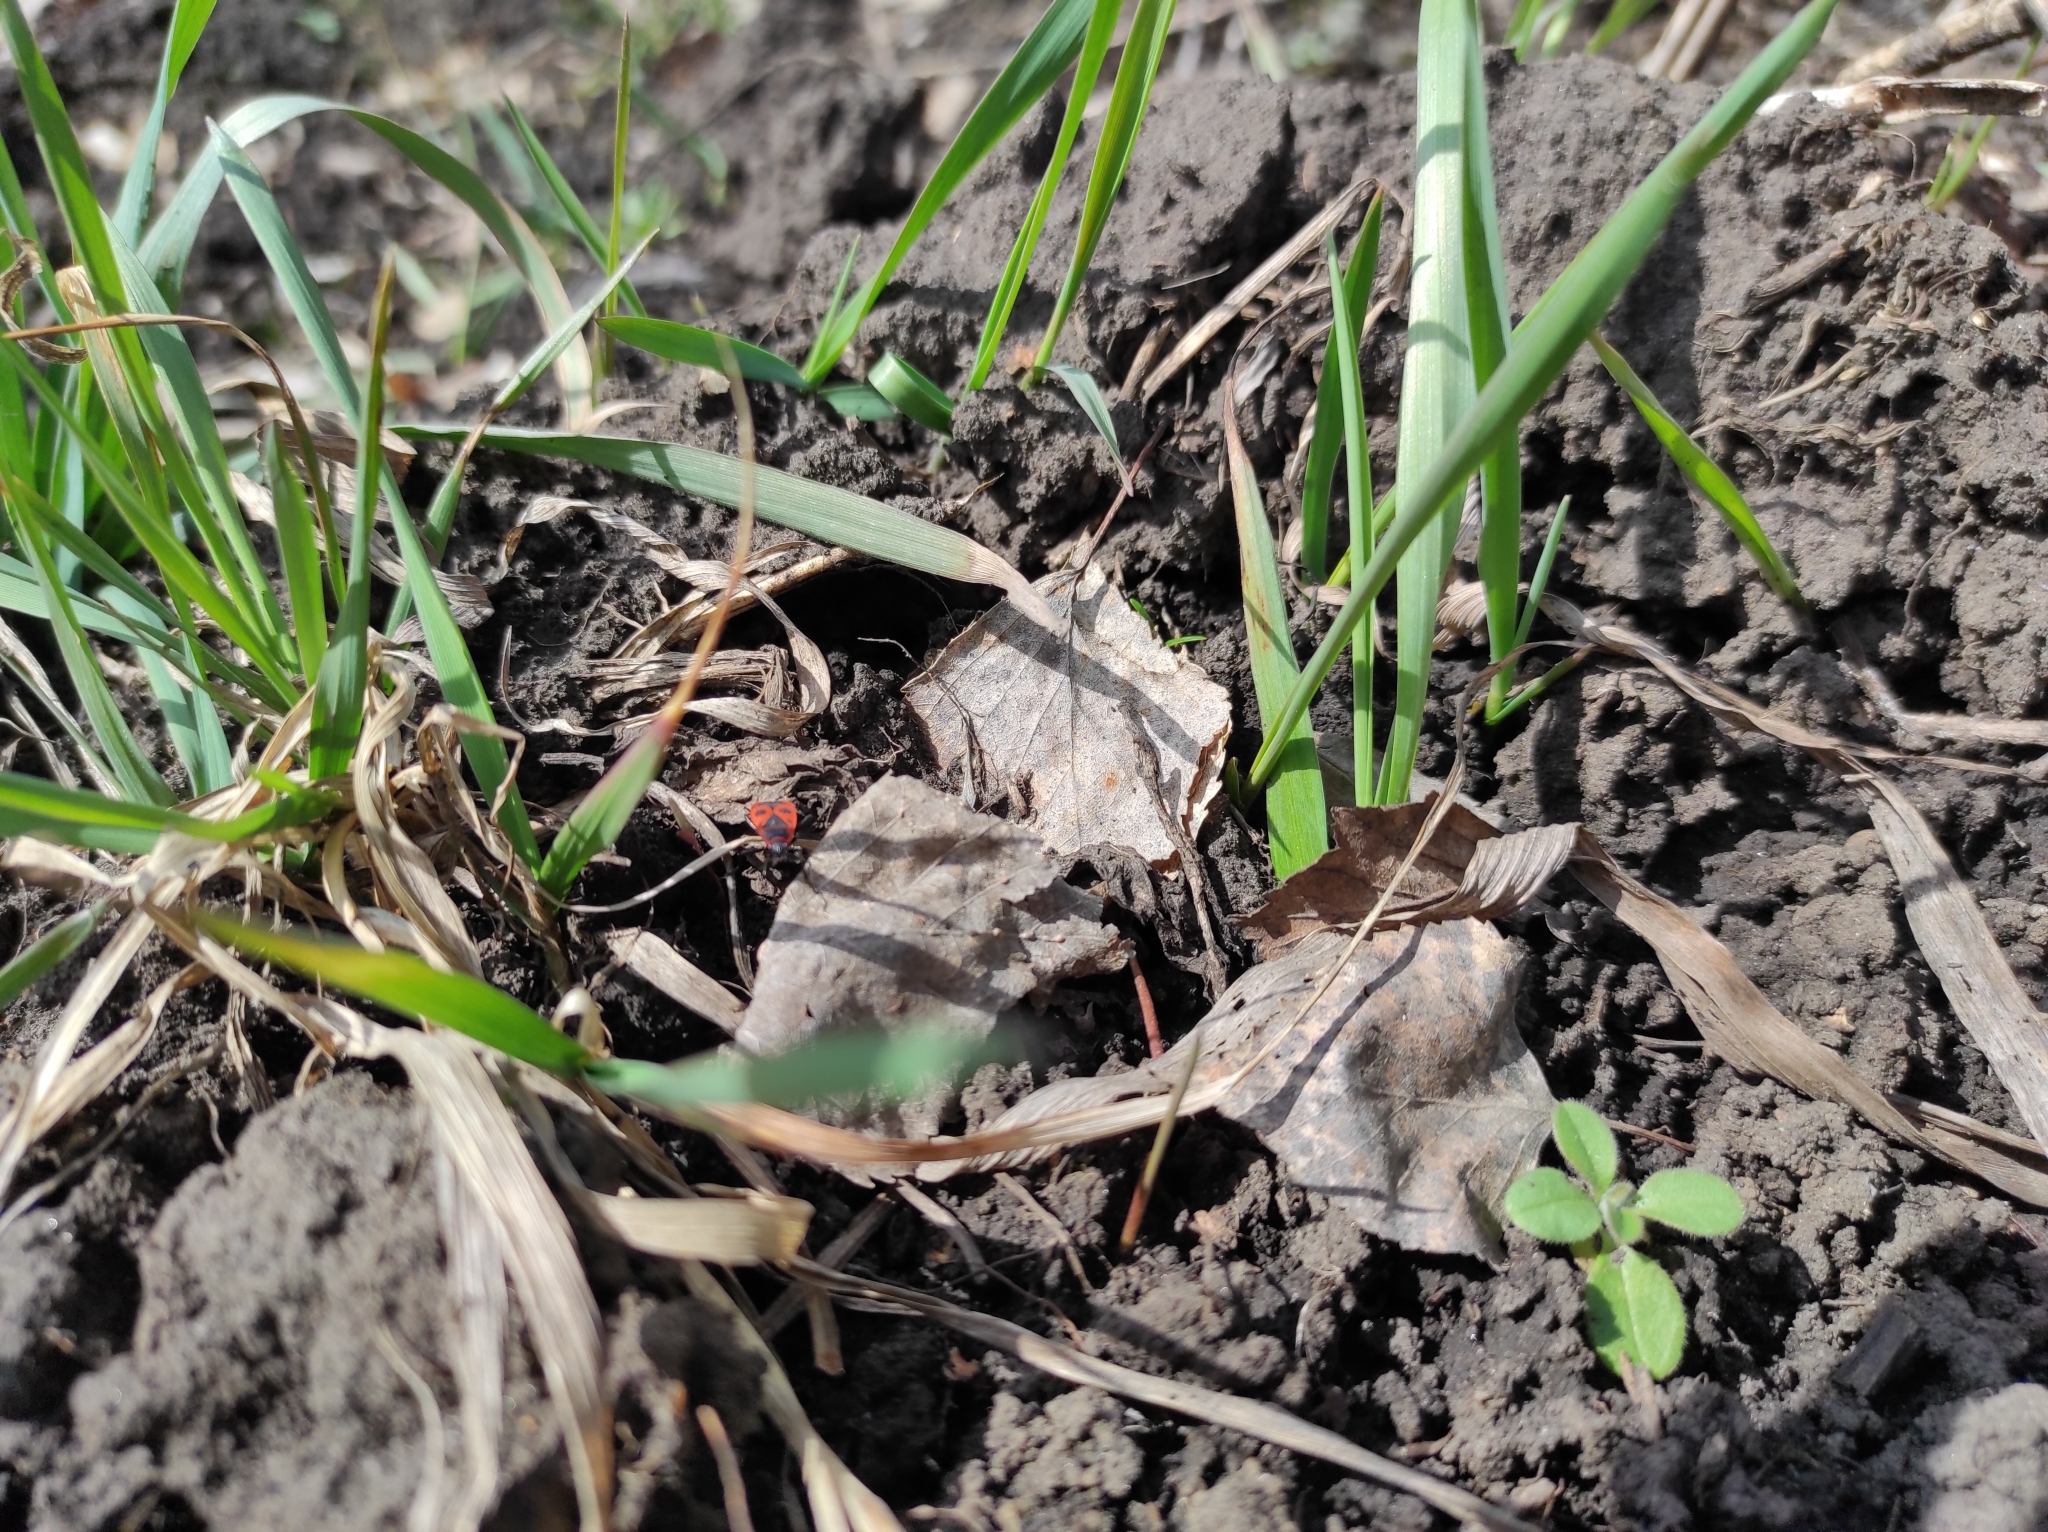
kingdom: Animalia
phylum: Arthropoda
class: Insecta
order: Hemiptera
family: Pyrrhocoridae
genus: Pyrrhocoris
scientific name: Pyrrhocoris apterus
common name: Firebug
